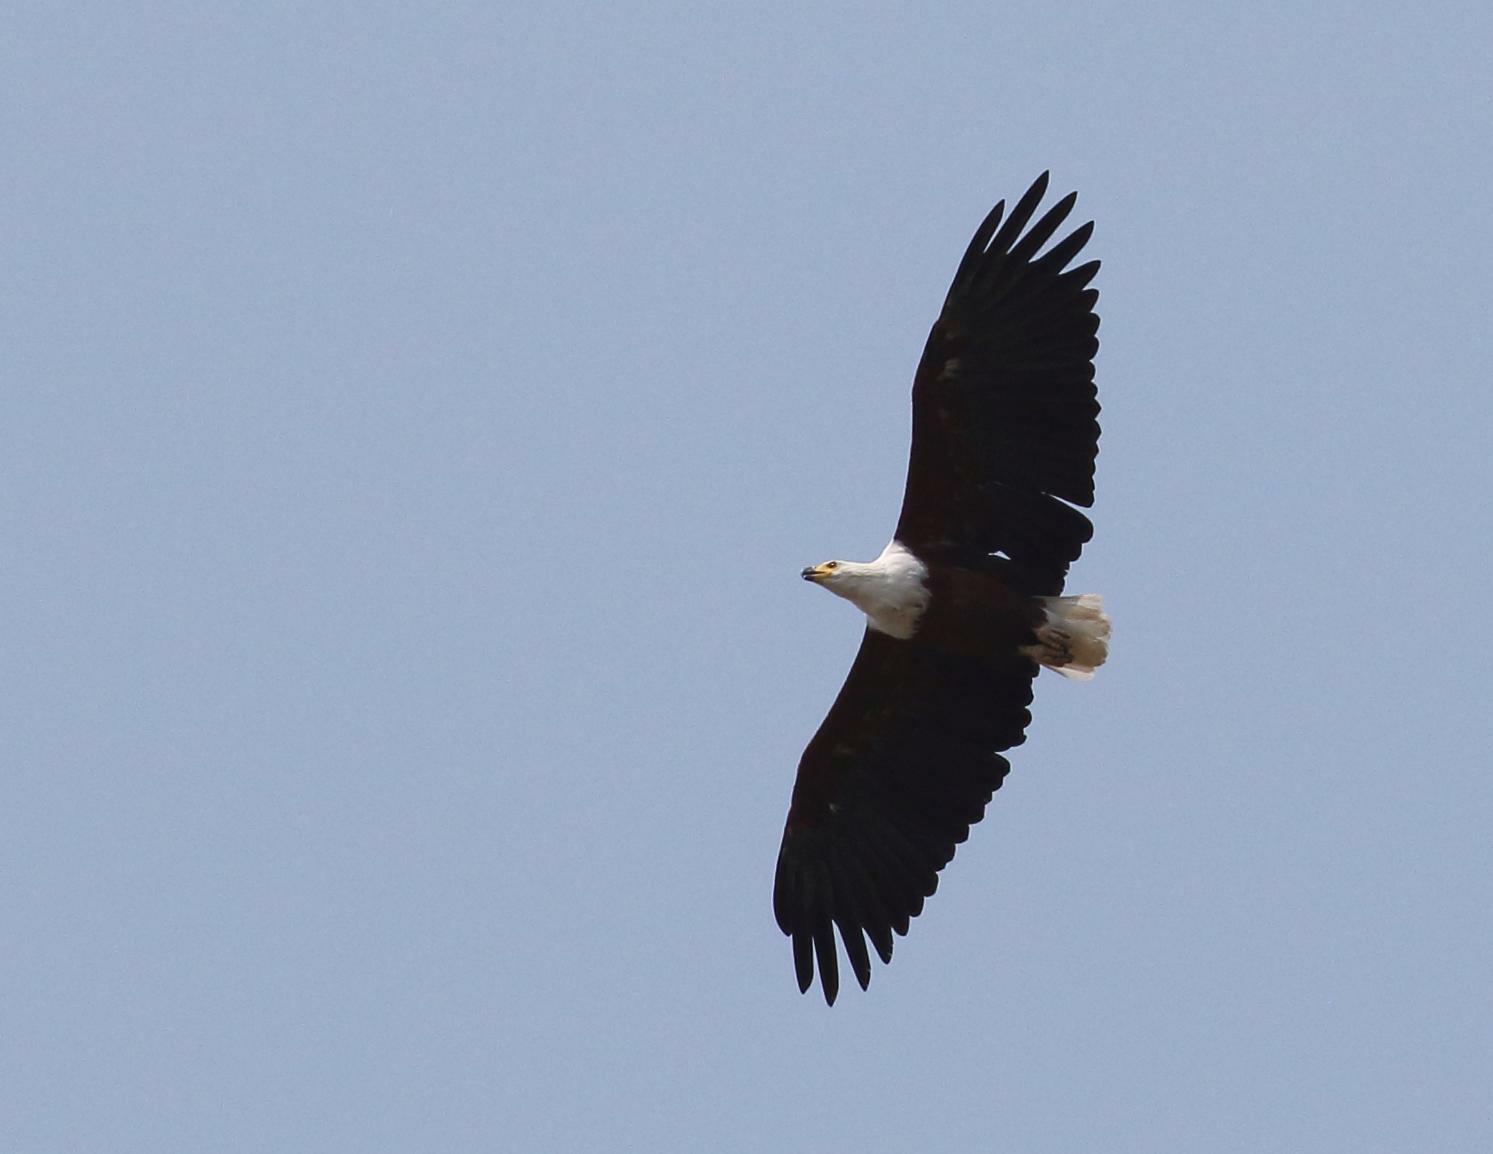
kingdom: Animalia
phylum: Chordata
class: Aves
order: Accipitriformes
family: Accipitridae
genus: Haliaeetus
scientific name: Haliaeetus vocifer
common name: African fish eagle
